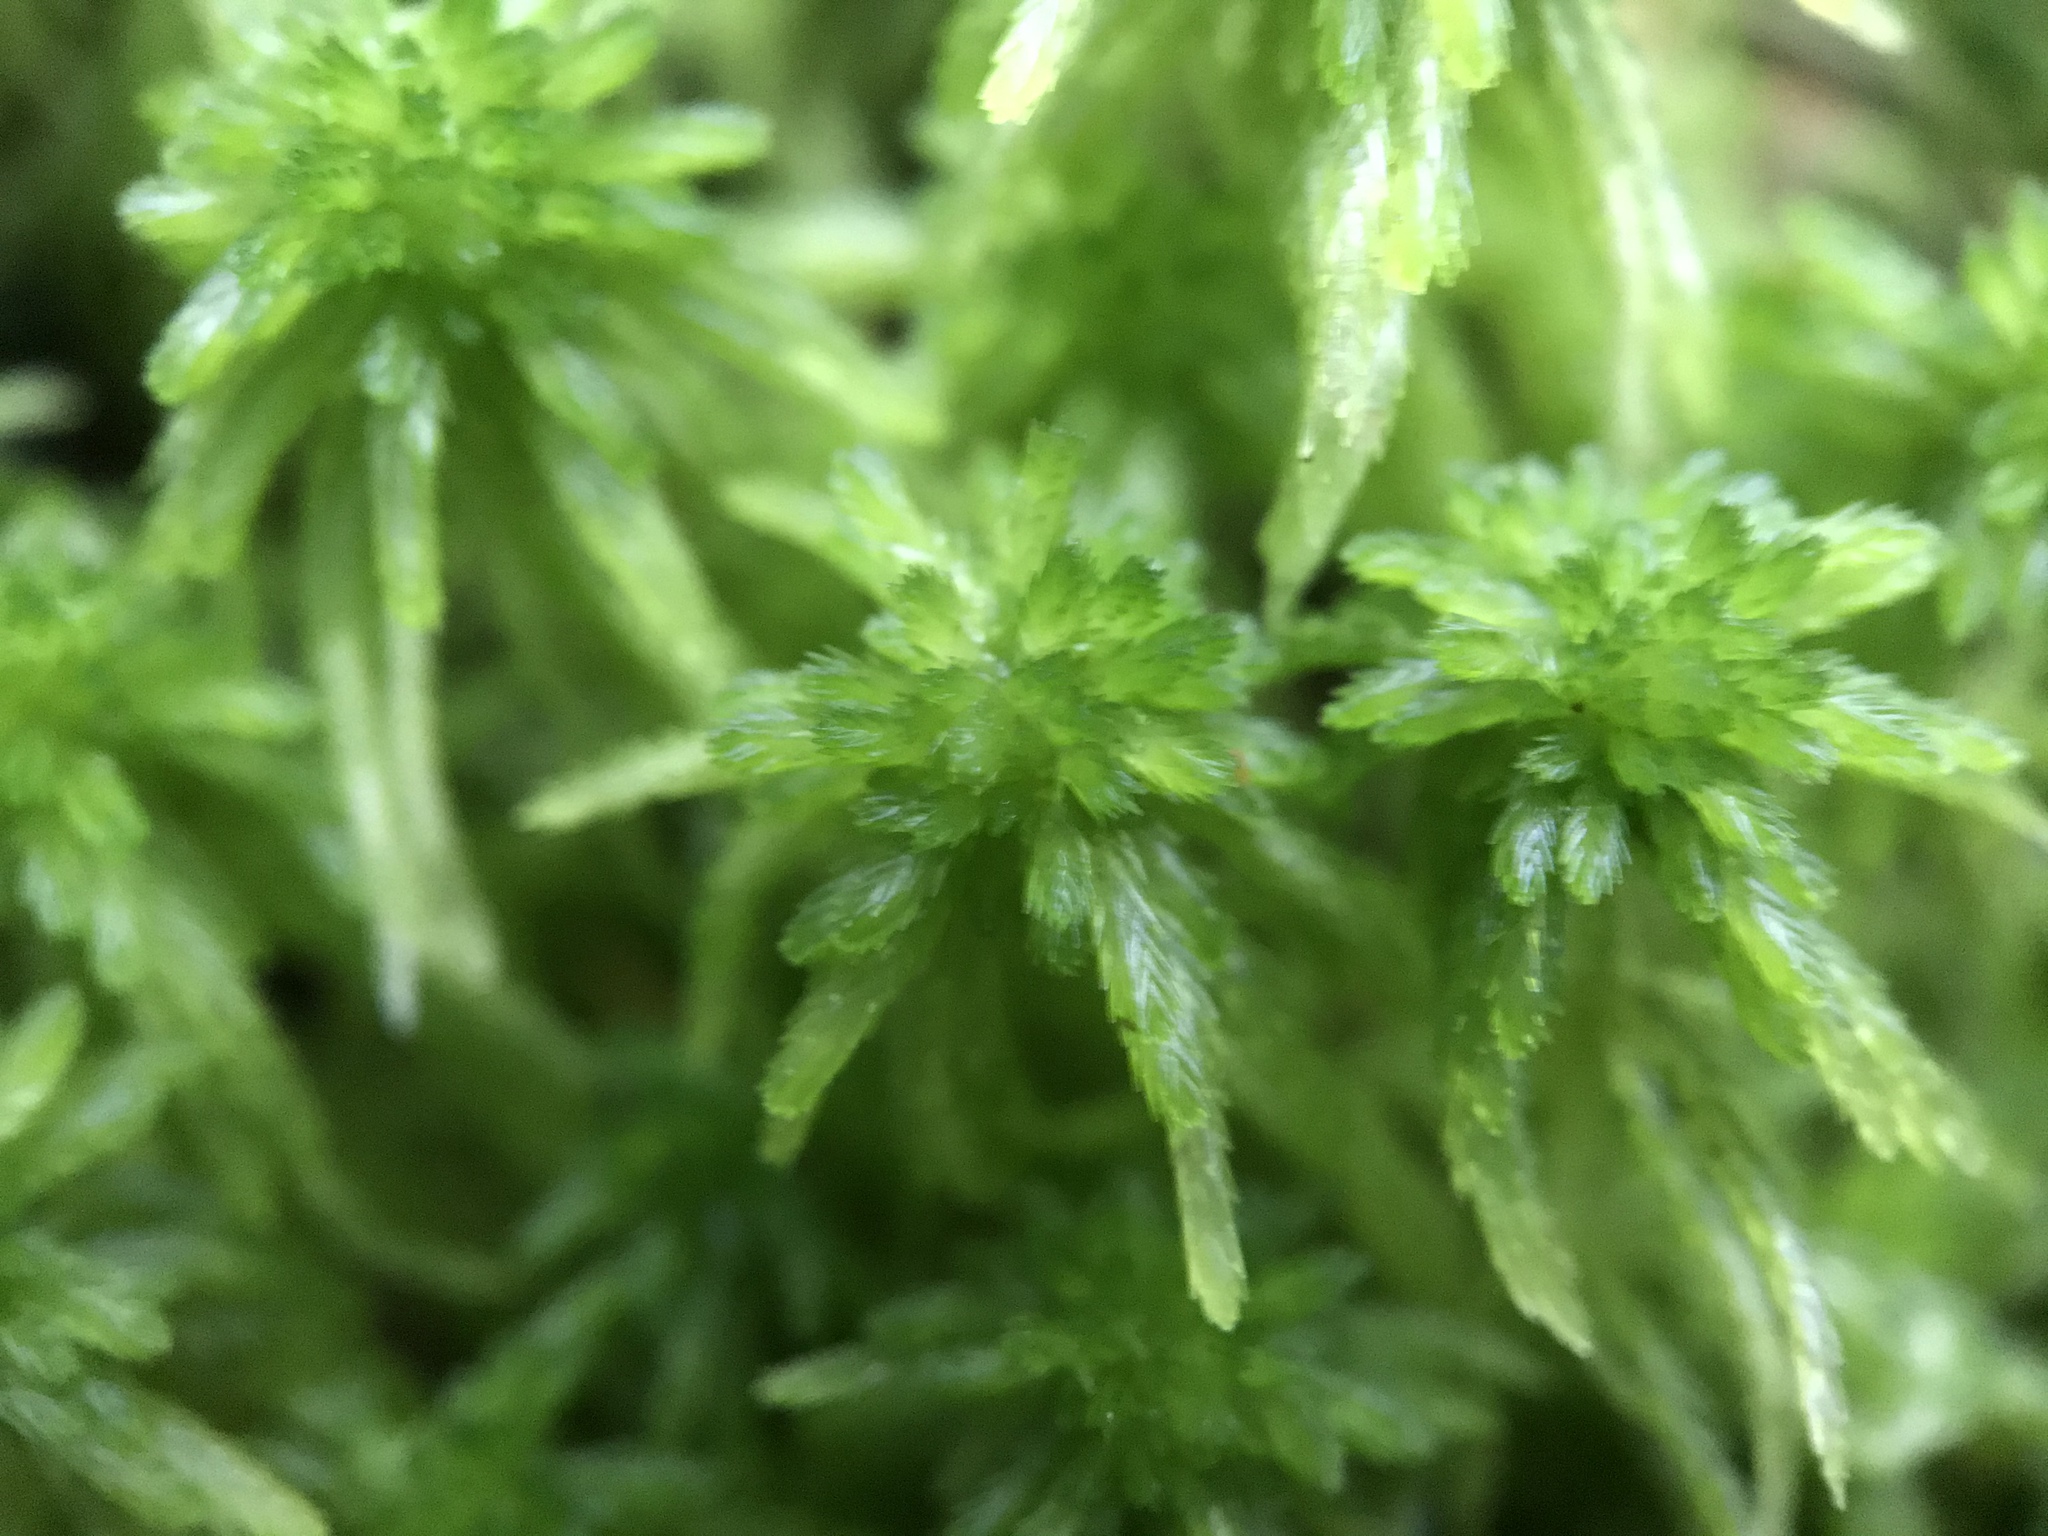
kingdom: Plantae
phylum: Bryophyta
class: Sphagnopsida
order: Sphagnales
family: Sphagnaceae
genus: Sphagnum
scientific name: Sphagnum quinquefarium
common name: Five-ranked peat moss
